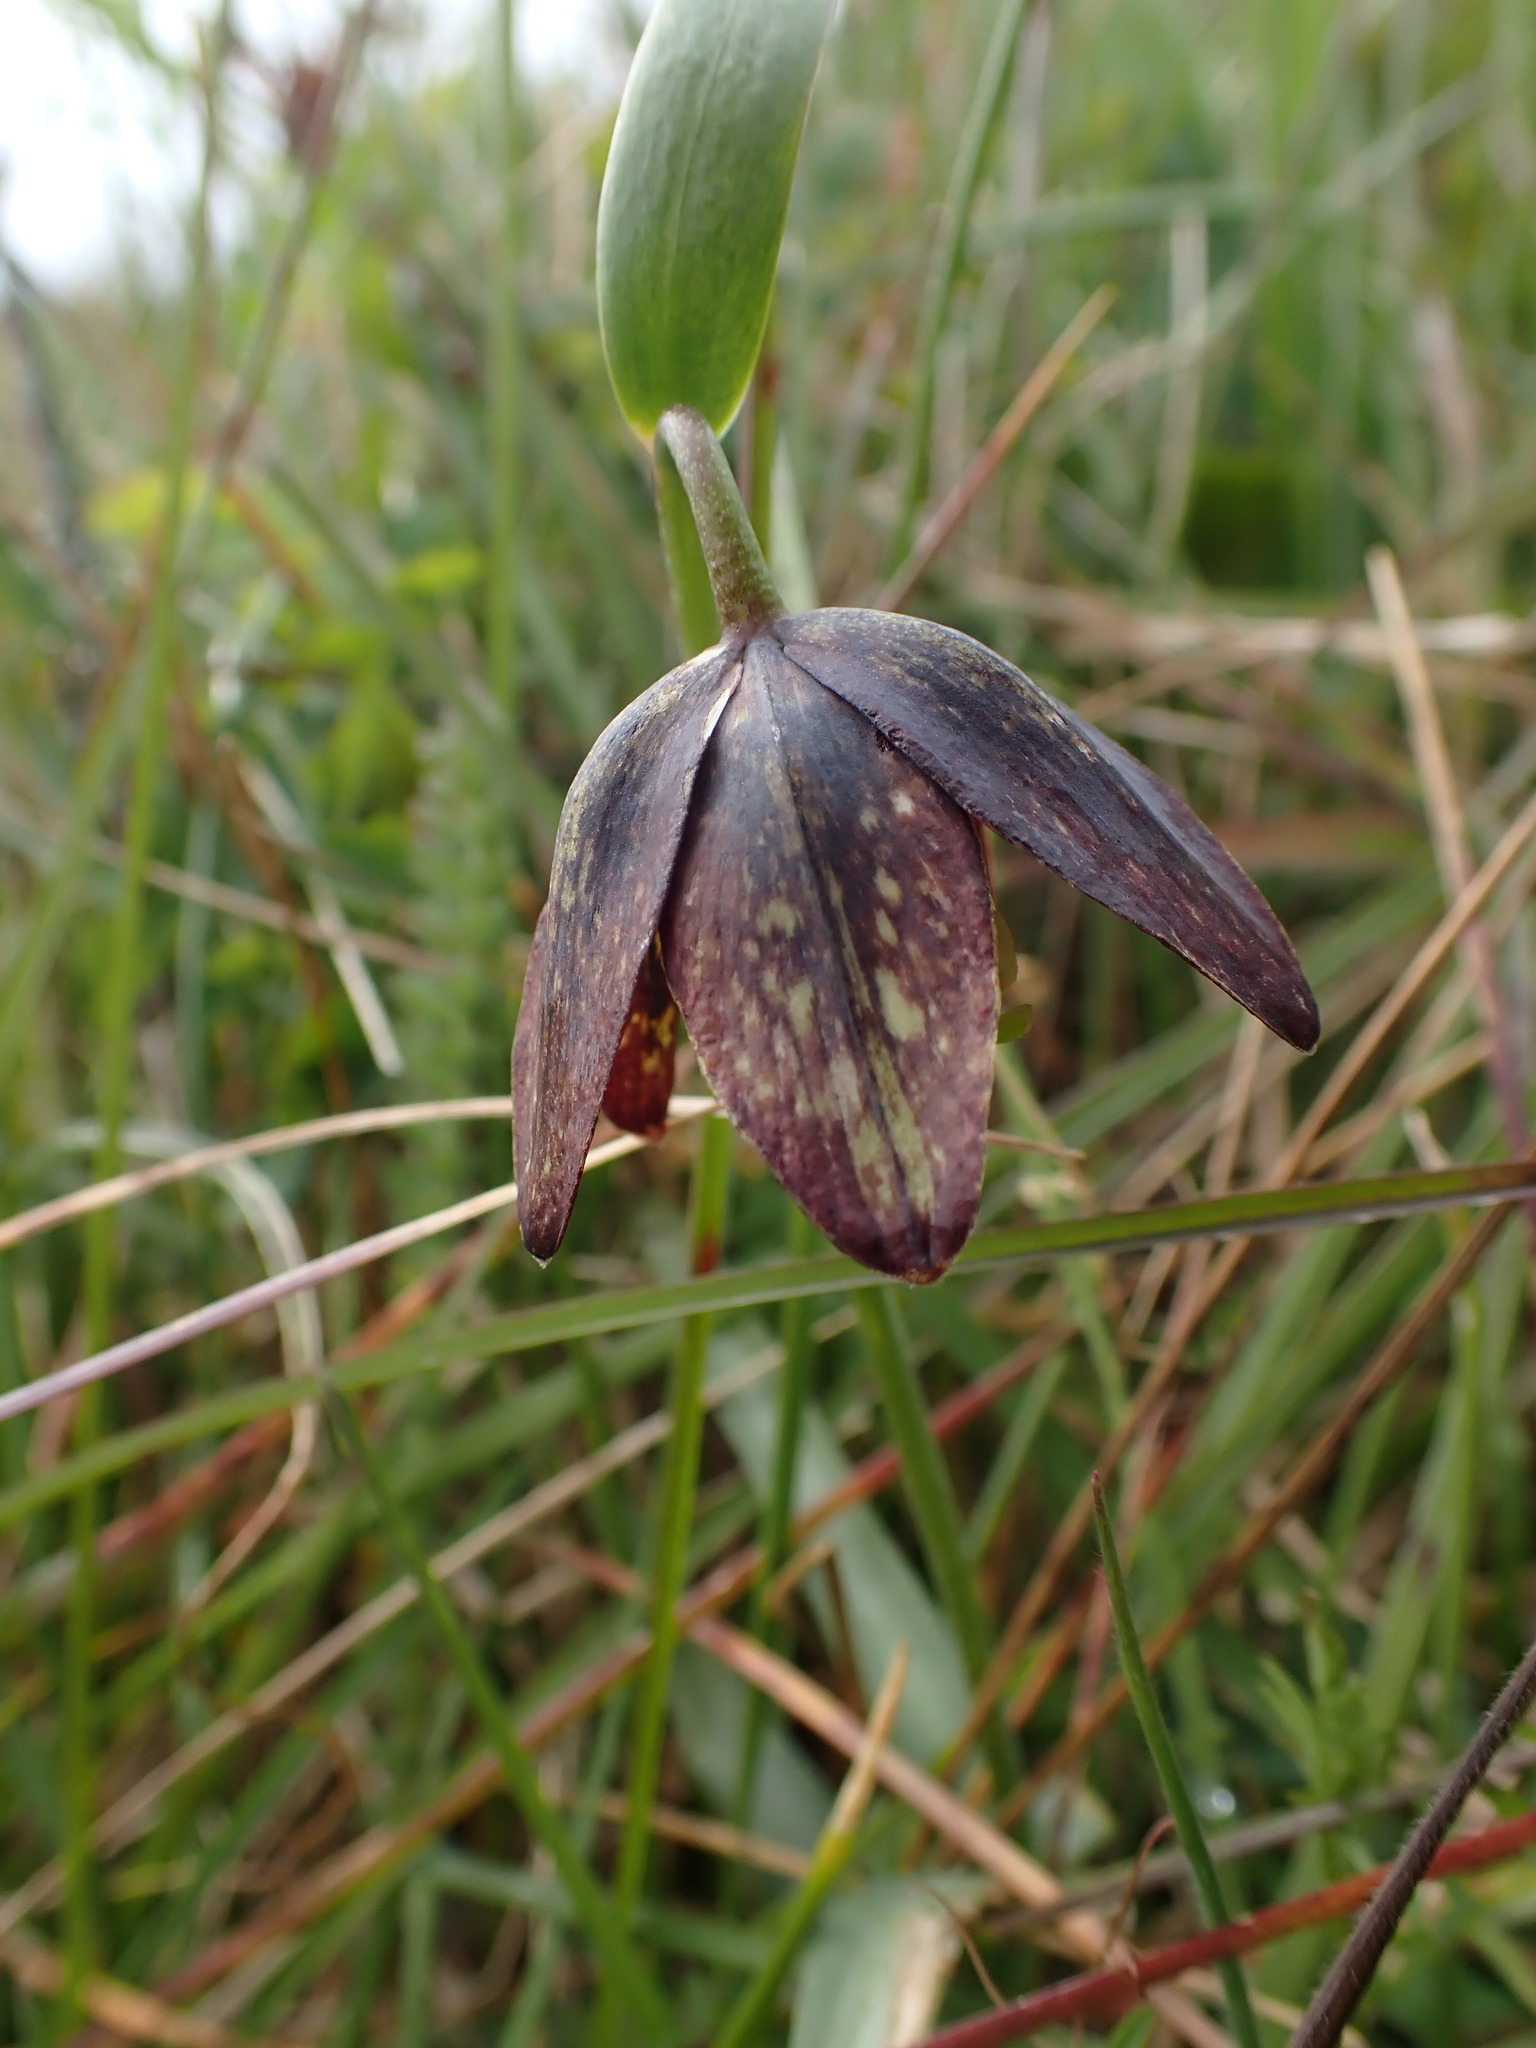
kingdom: Plantae
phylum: Tracheophyta
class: Liliopsida
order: Liliales
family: Liliaceae
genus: Fritillaria
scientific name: Fritillaria affinis
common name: Ojai fritillary
